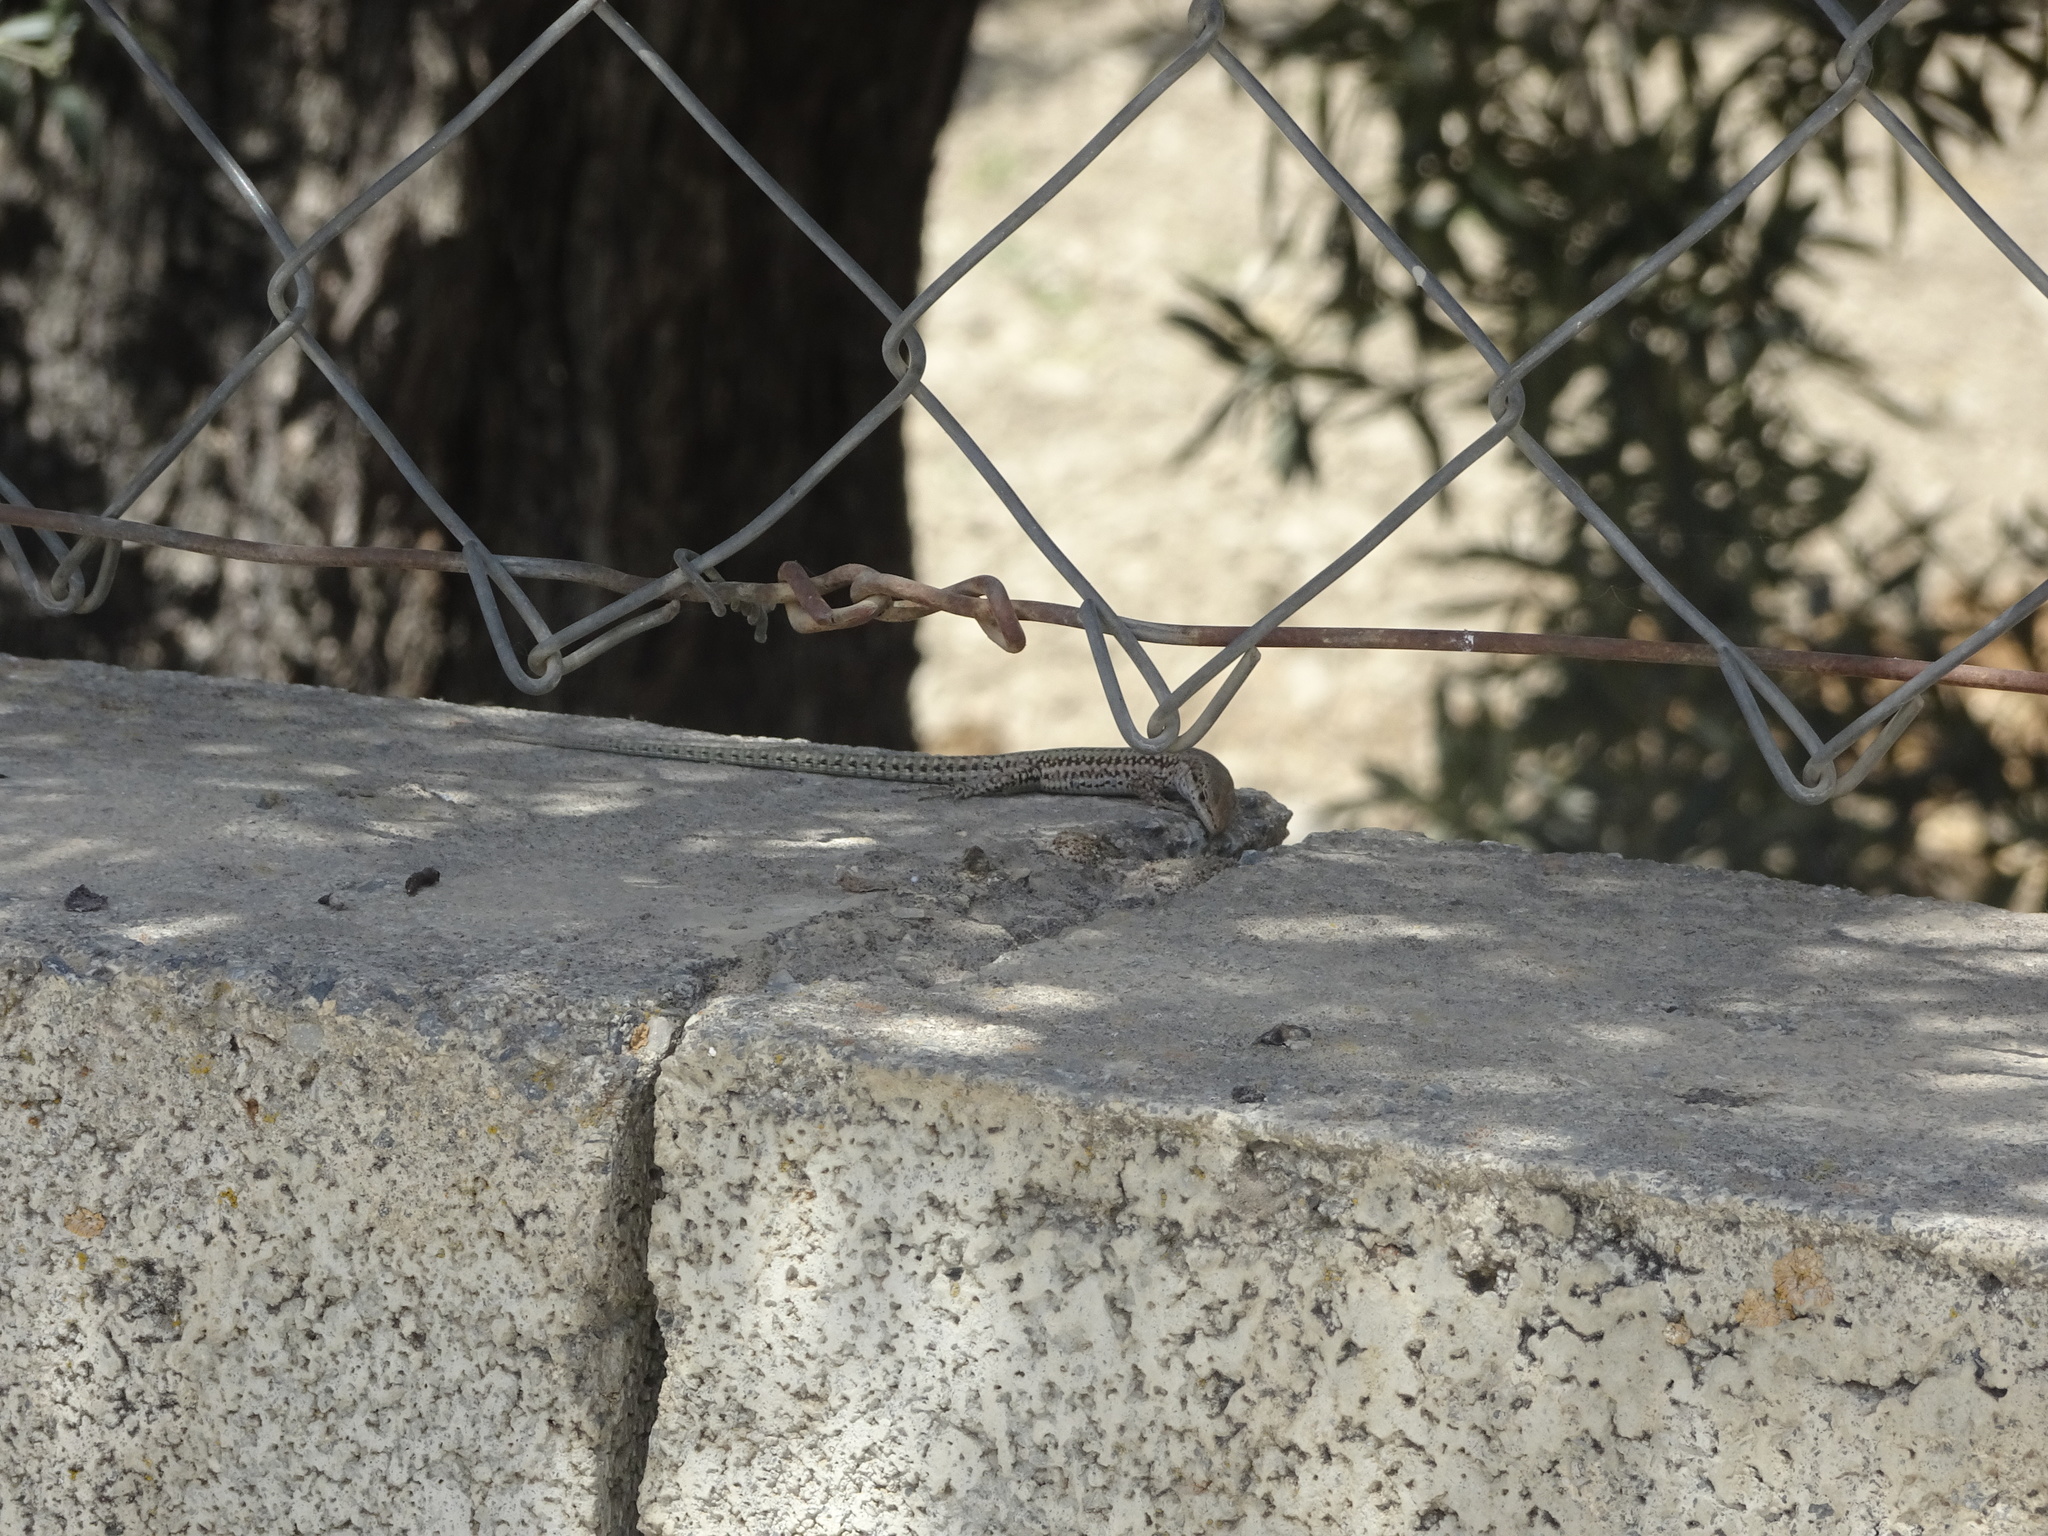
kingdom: Animalia
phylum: Chordata
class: Squamata
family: Lacertidae
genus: Podarcis
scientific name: Podarcis vaucheri
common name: Vaucher's wall lizard
